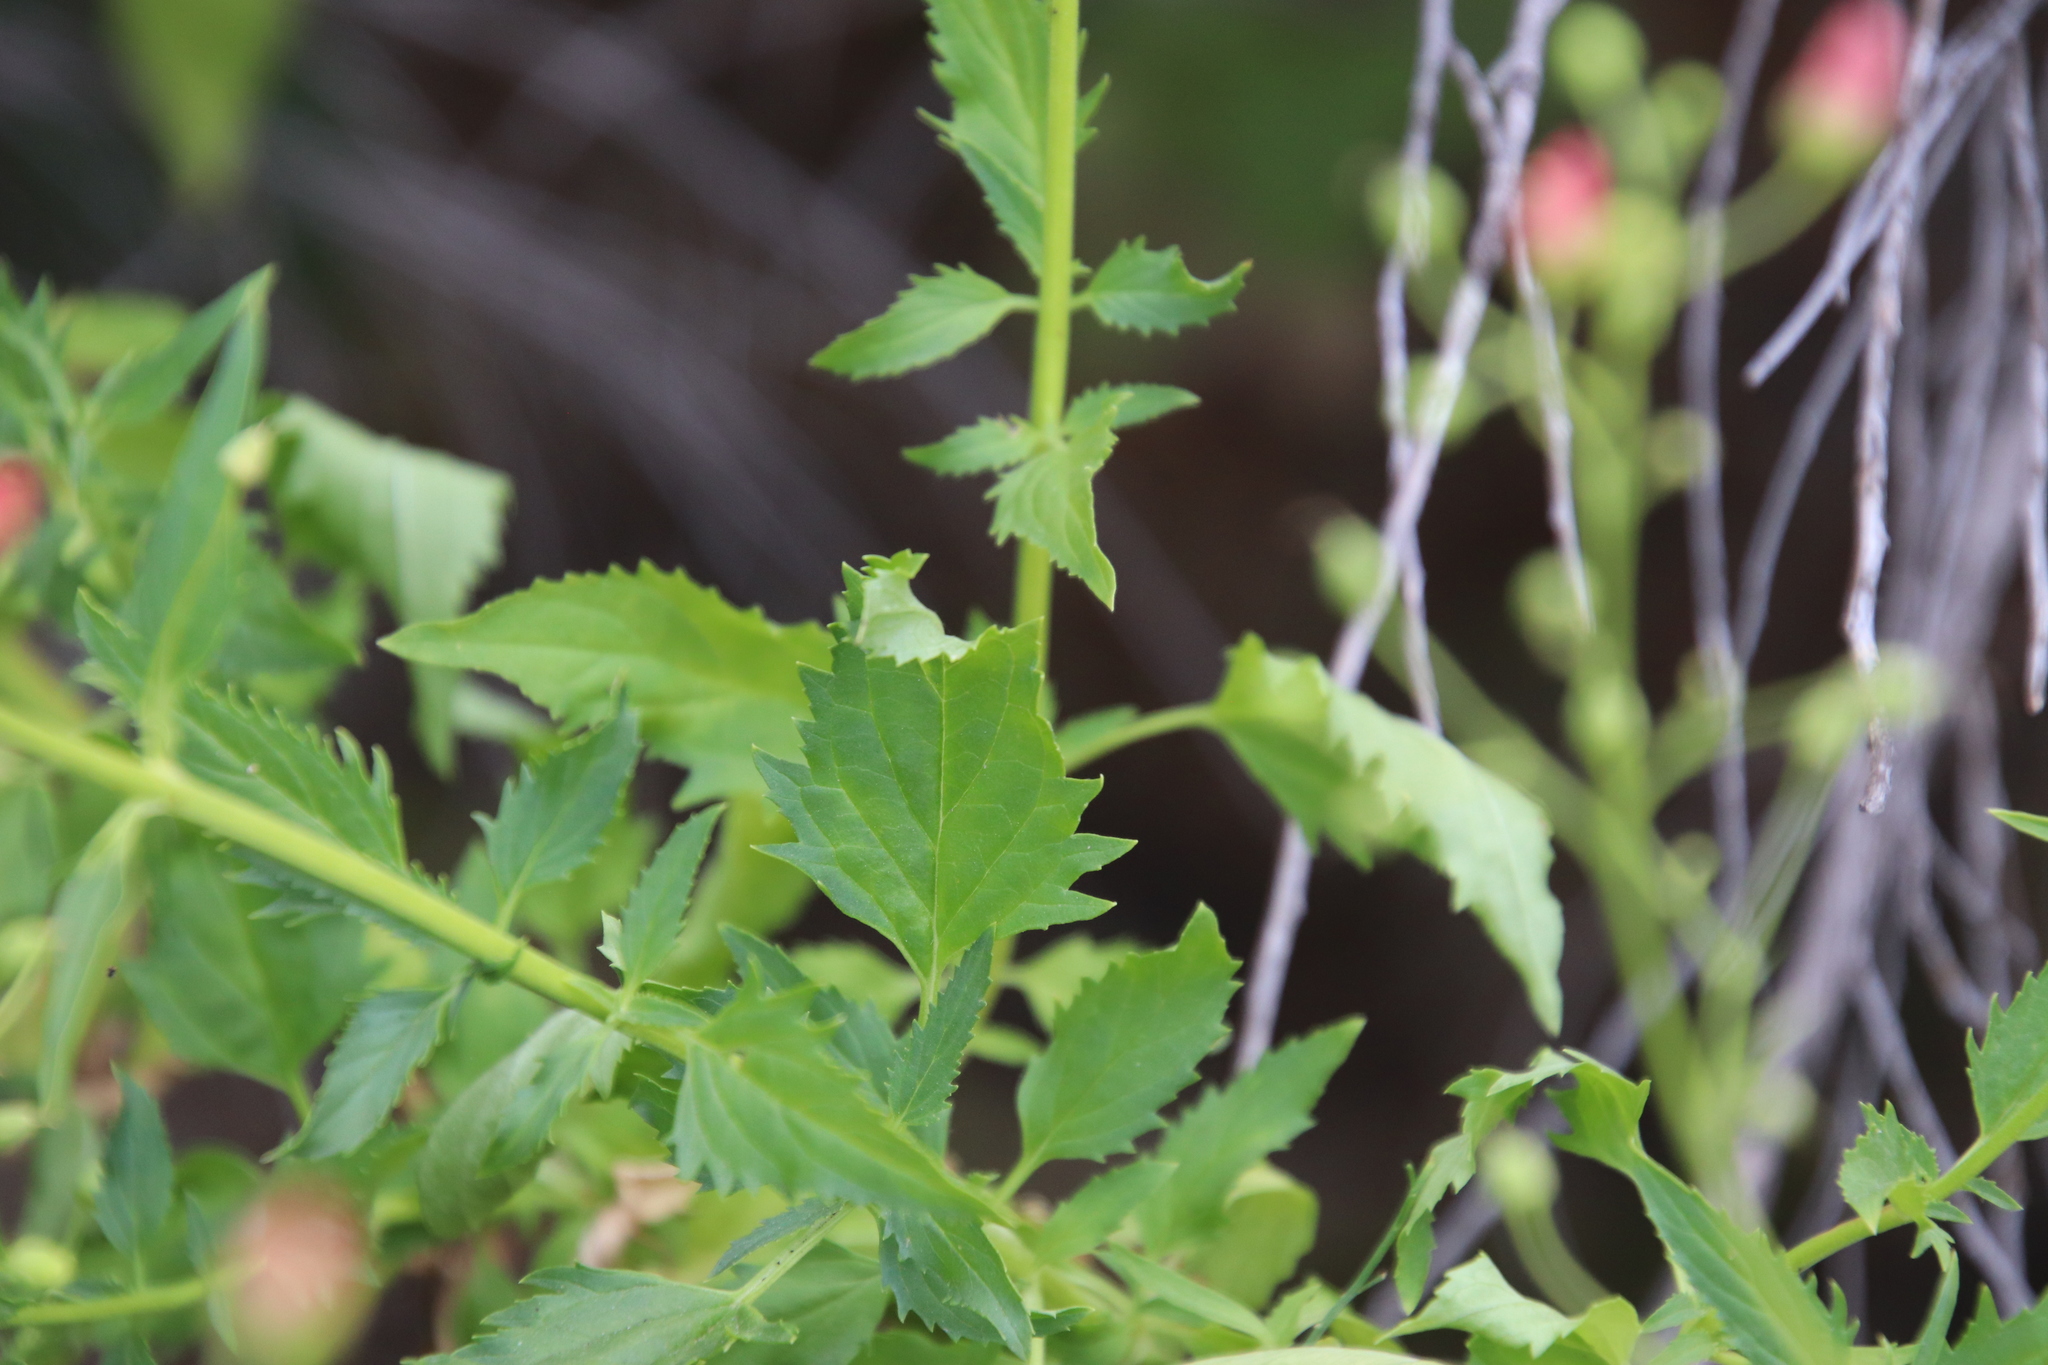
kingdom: Plantae
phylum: Tracheophyta
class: Magnoliopsida
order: Lamiales
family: Scrophulariaceae
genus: Scrophularia
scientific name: Scrophularia californica
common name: California figwort
